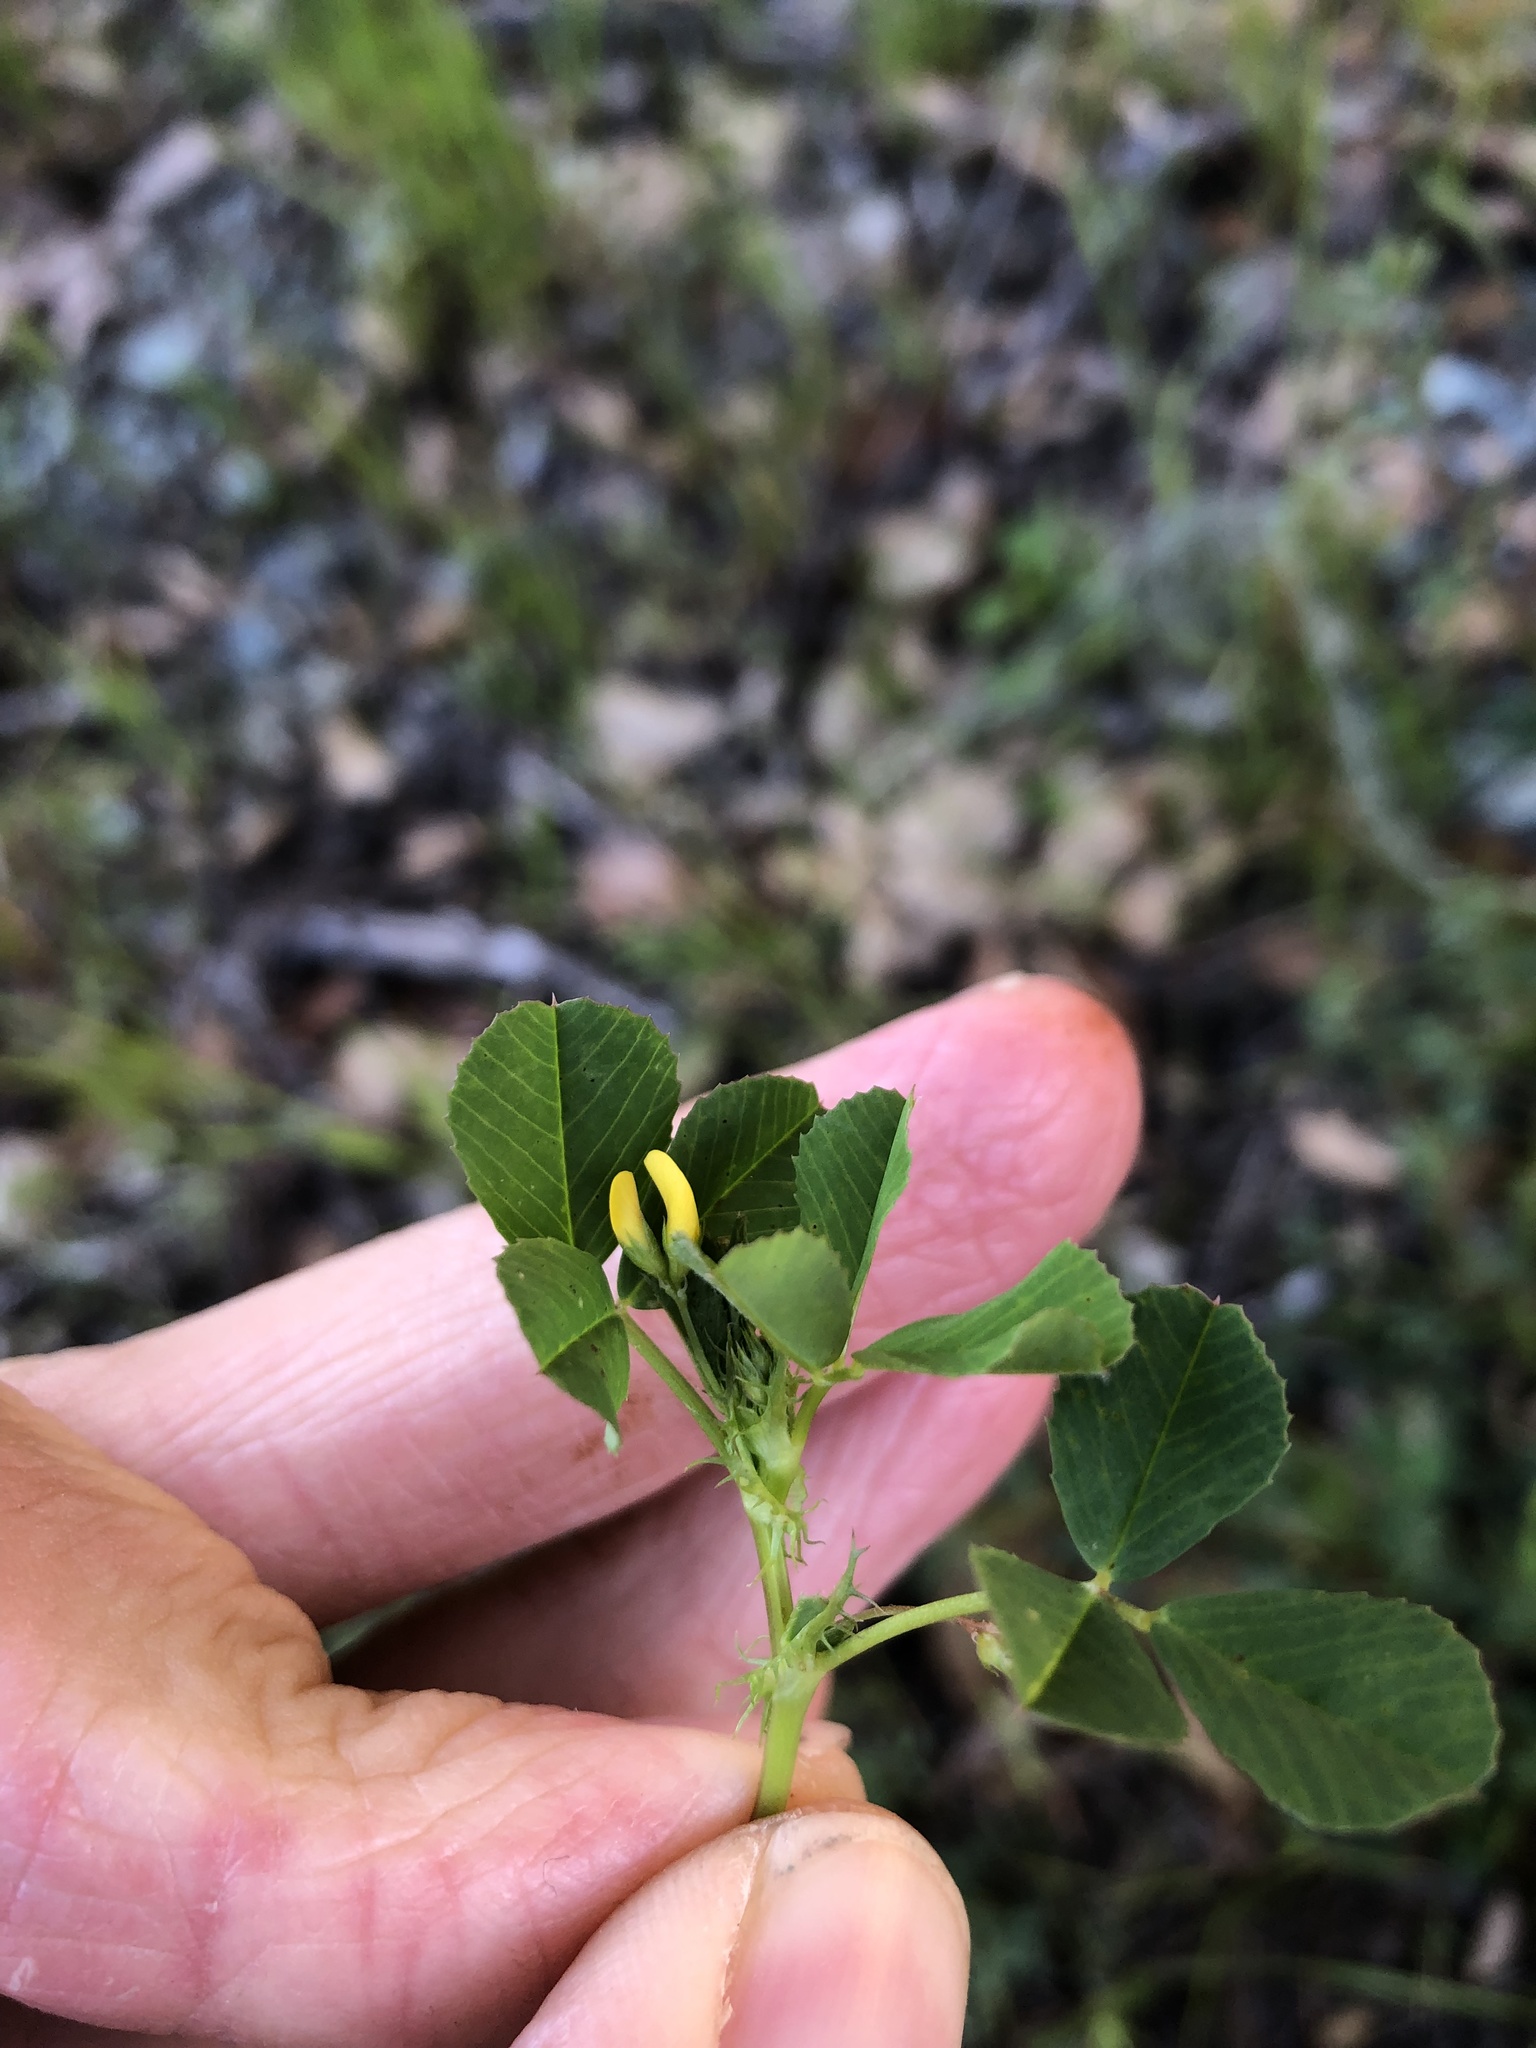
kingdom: Plantae
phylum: Tracheophyta
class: Magnoliopsida
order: Fabales
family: Fabaceae
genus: Medicago
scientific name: Medicago polymorpha
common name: Burclover
